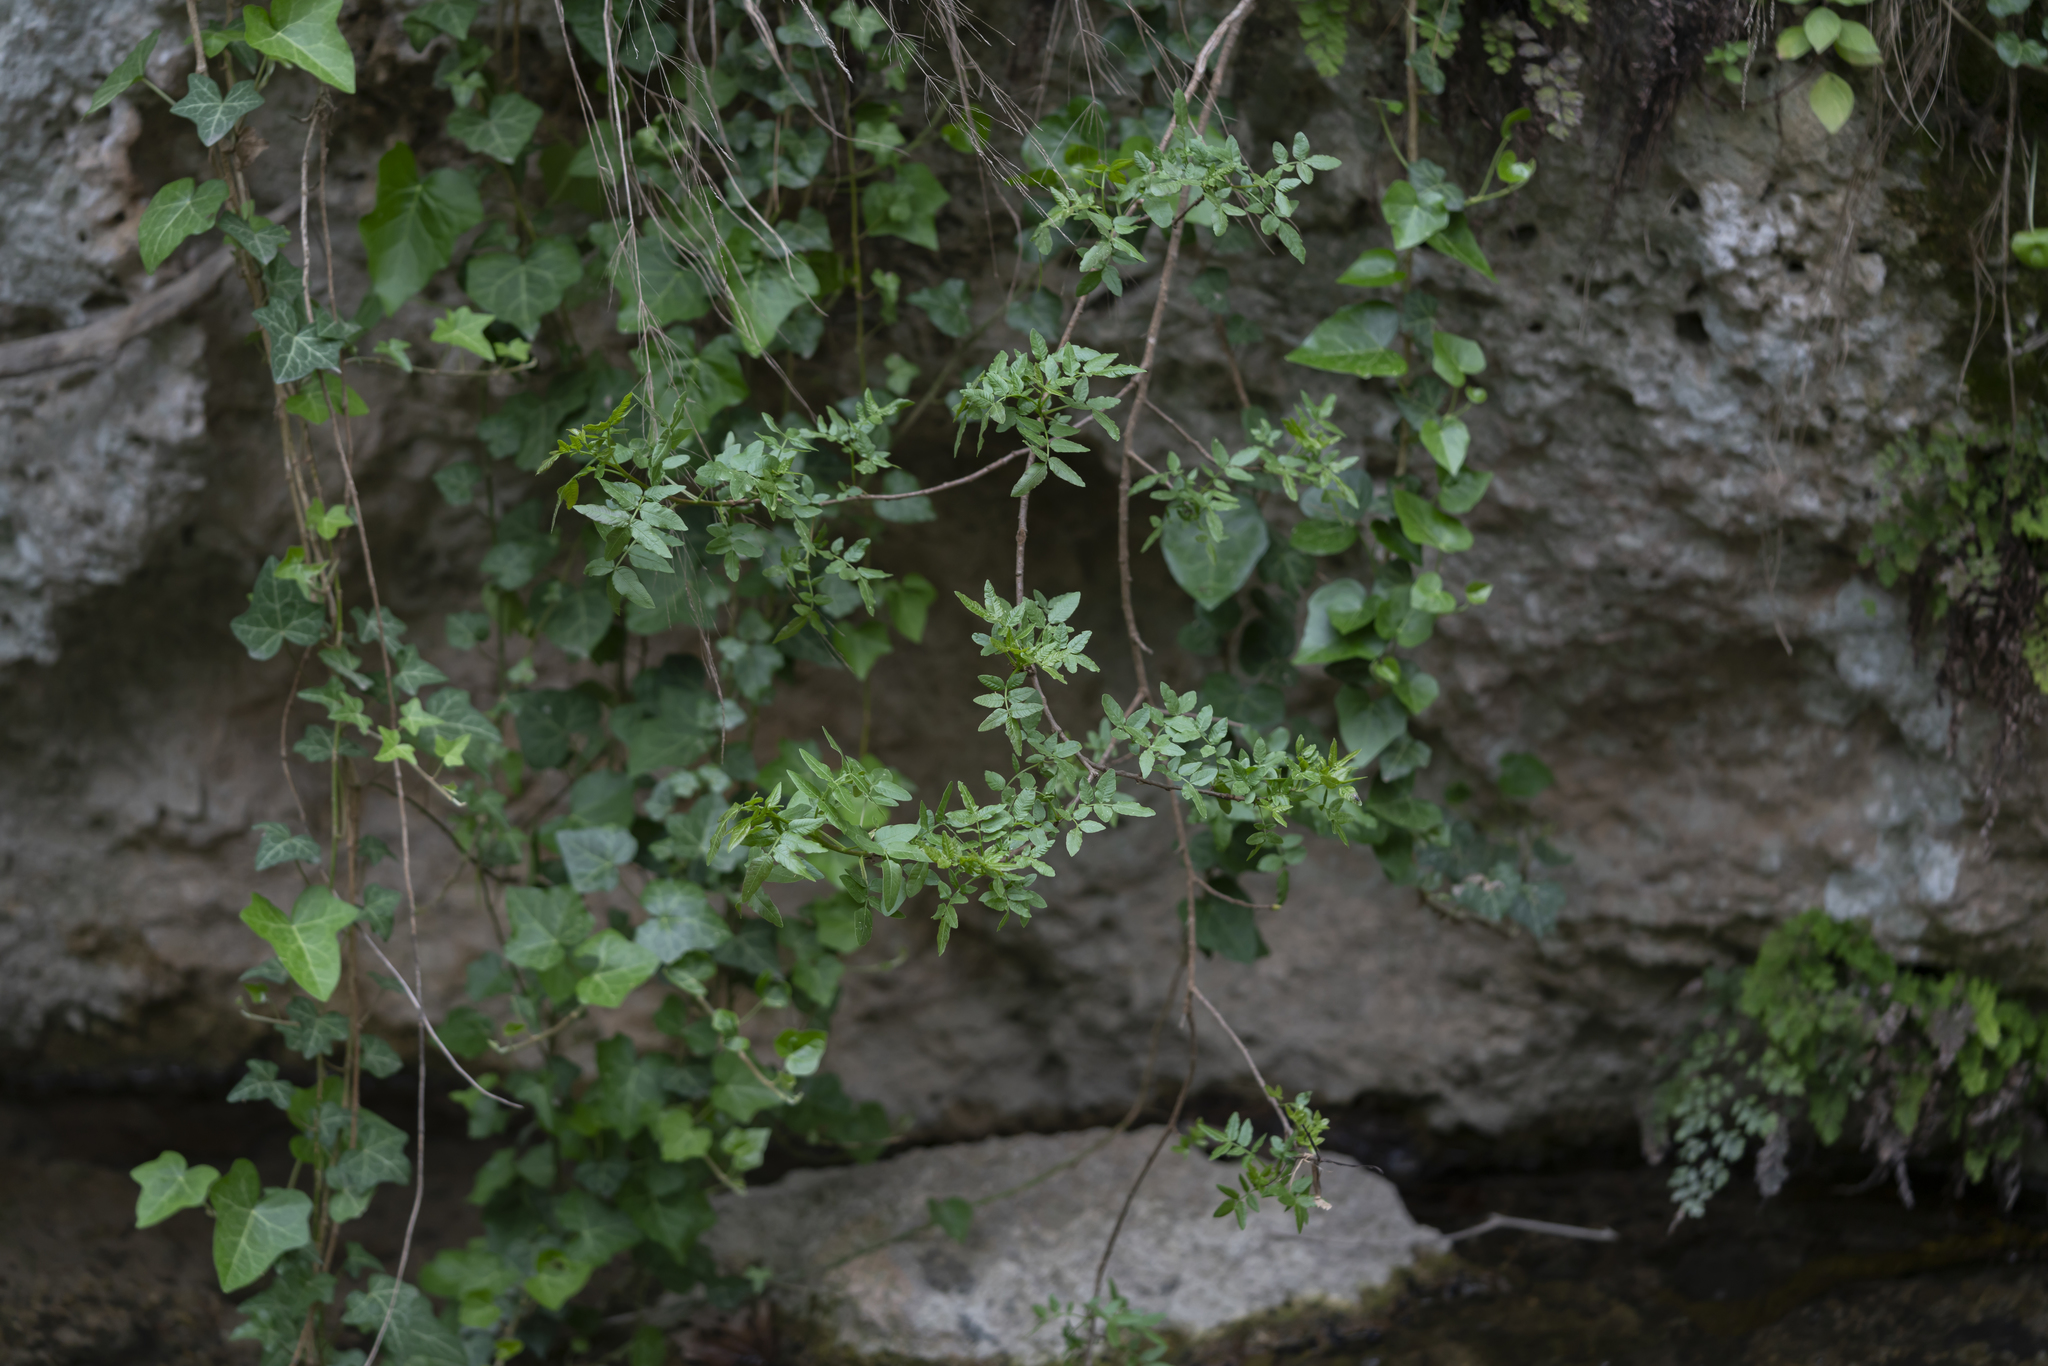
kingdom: Plantae
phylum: Tracheophyta
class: Magnoliopsida
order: Sapindales
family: Anacardiaceae
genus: Pistacia
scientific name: Pistacia atlantica
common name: Mt. atlas mastic tree
